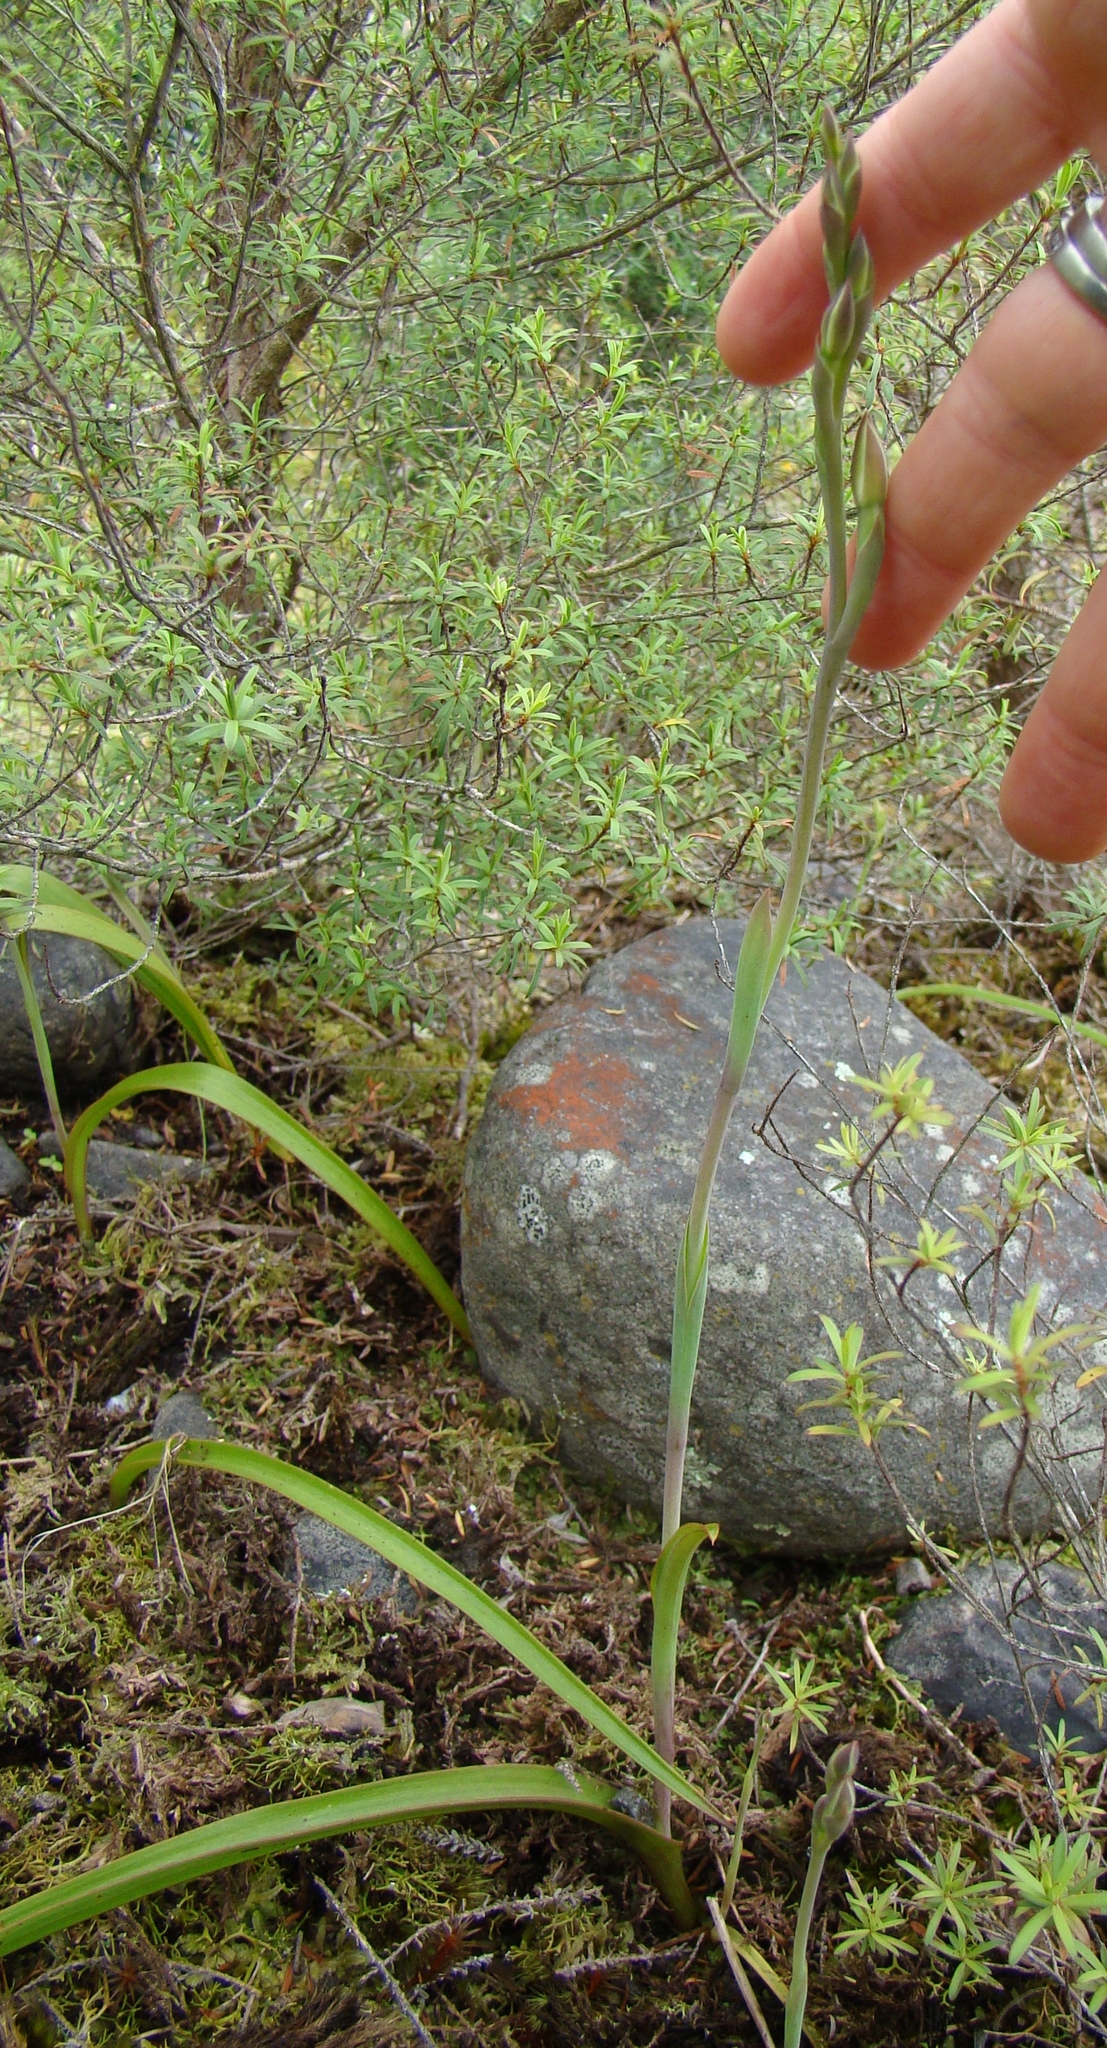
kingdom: Plantae
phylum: Tracheophyta
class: Liliopsida
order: Asparagales
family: Orchidaceae
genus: Thelymitra
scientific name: Thelymitra longifolia
